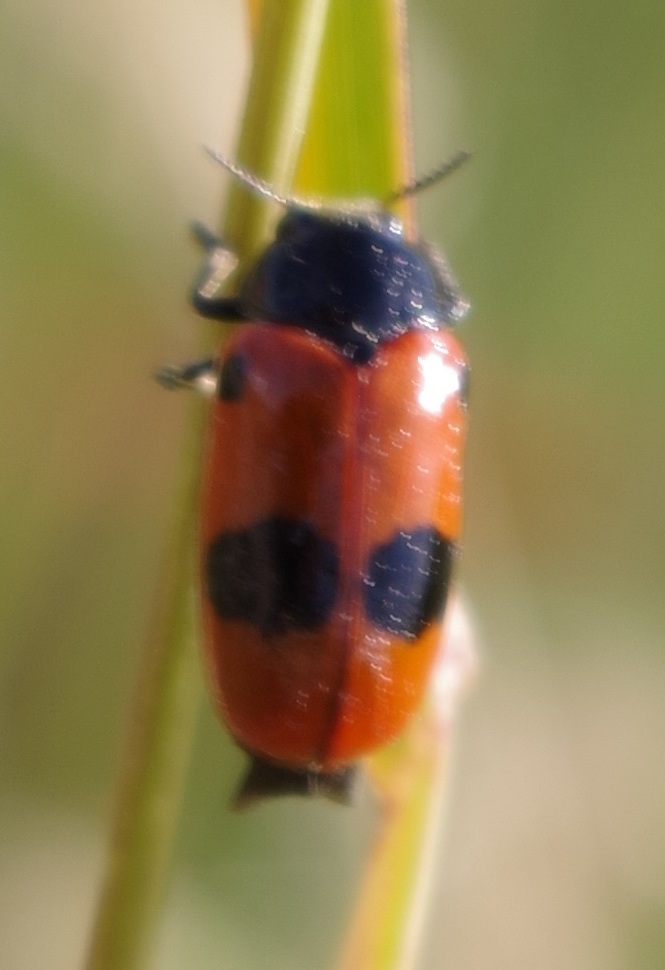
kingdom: Animalia
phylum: Arthropoda
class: Insecta
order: Coleoptera
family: Chrysomelidae
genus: Clytra
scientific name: Clytra laeviuscula
